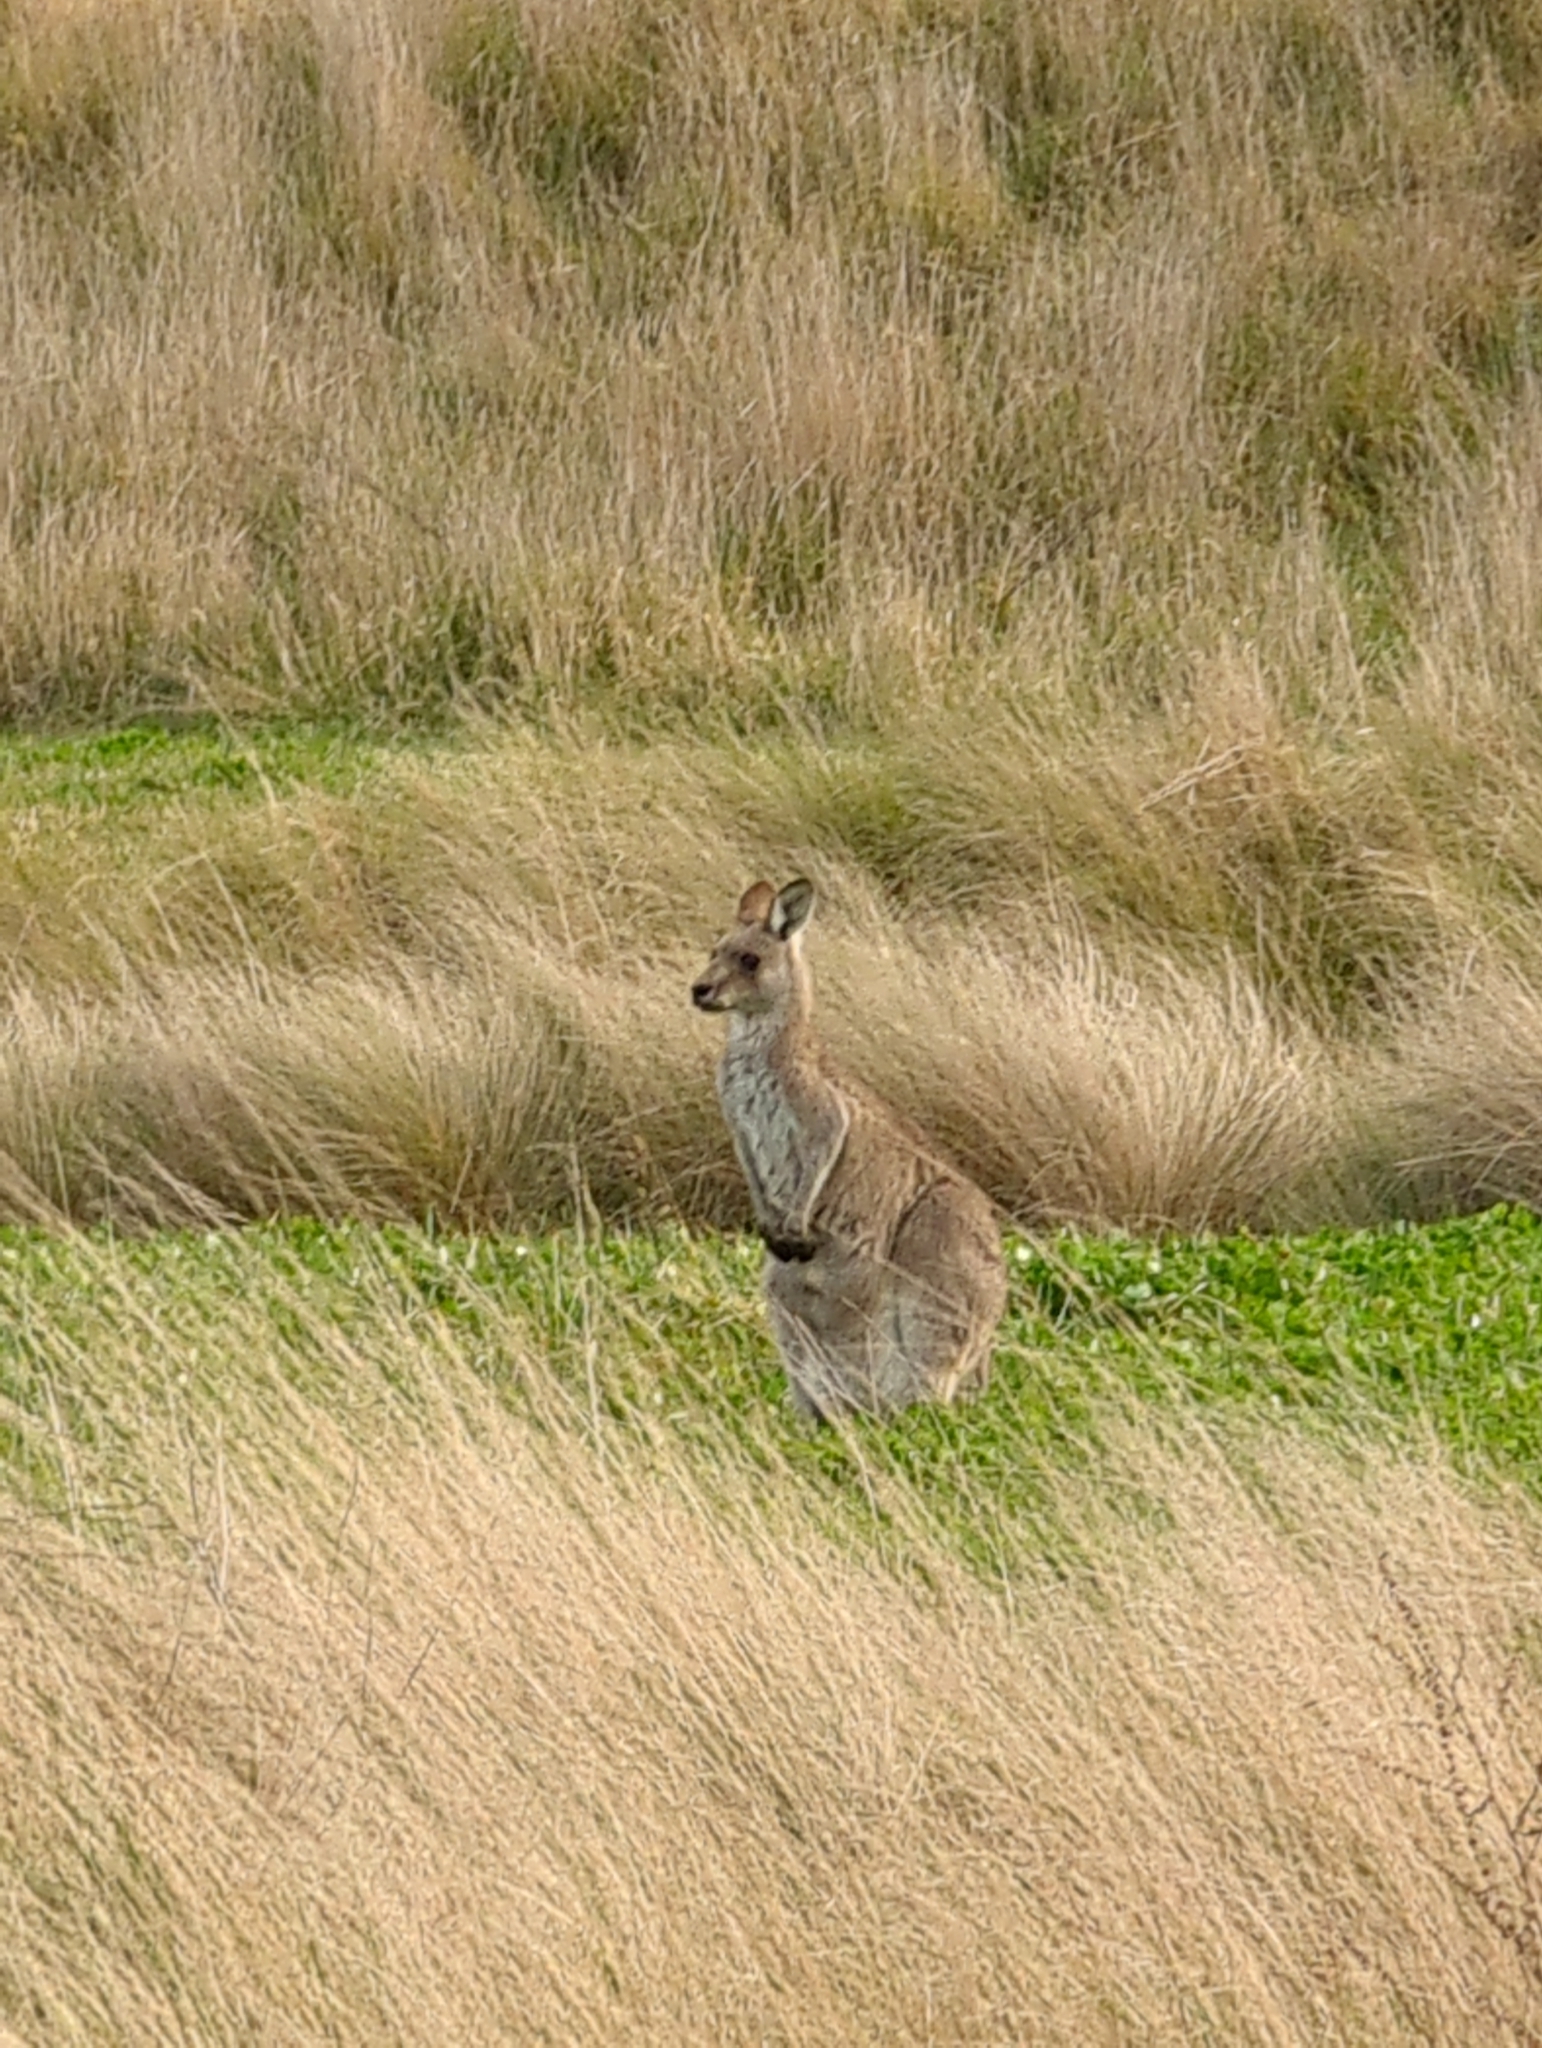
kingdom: Animalia
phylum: Chordata
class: Mammalia
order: Diprotodontia
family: Macropodidae
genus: Macropus
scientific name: Macropus giganteus
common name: Eastern grey kangaroo
